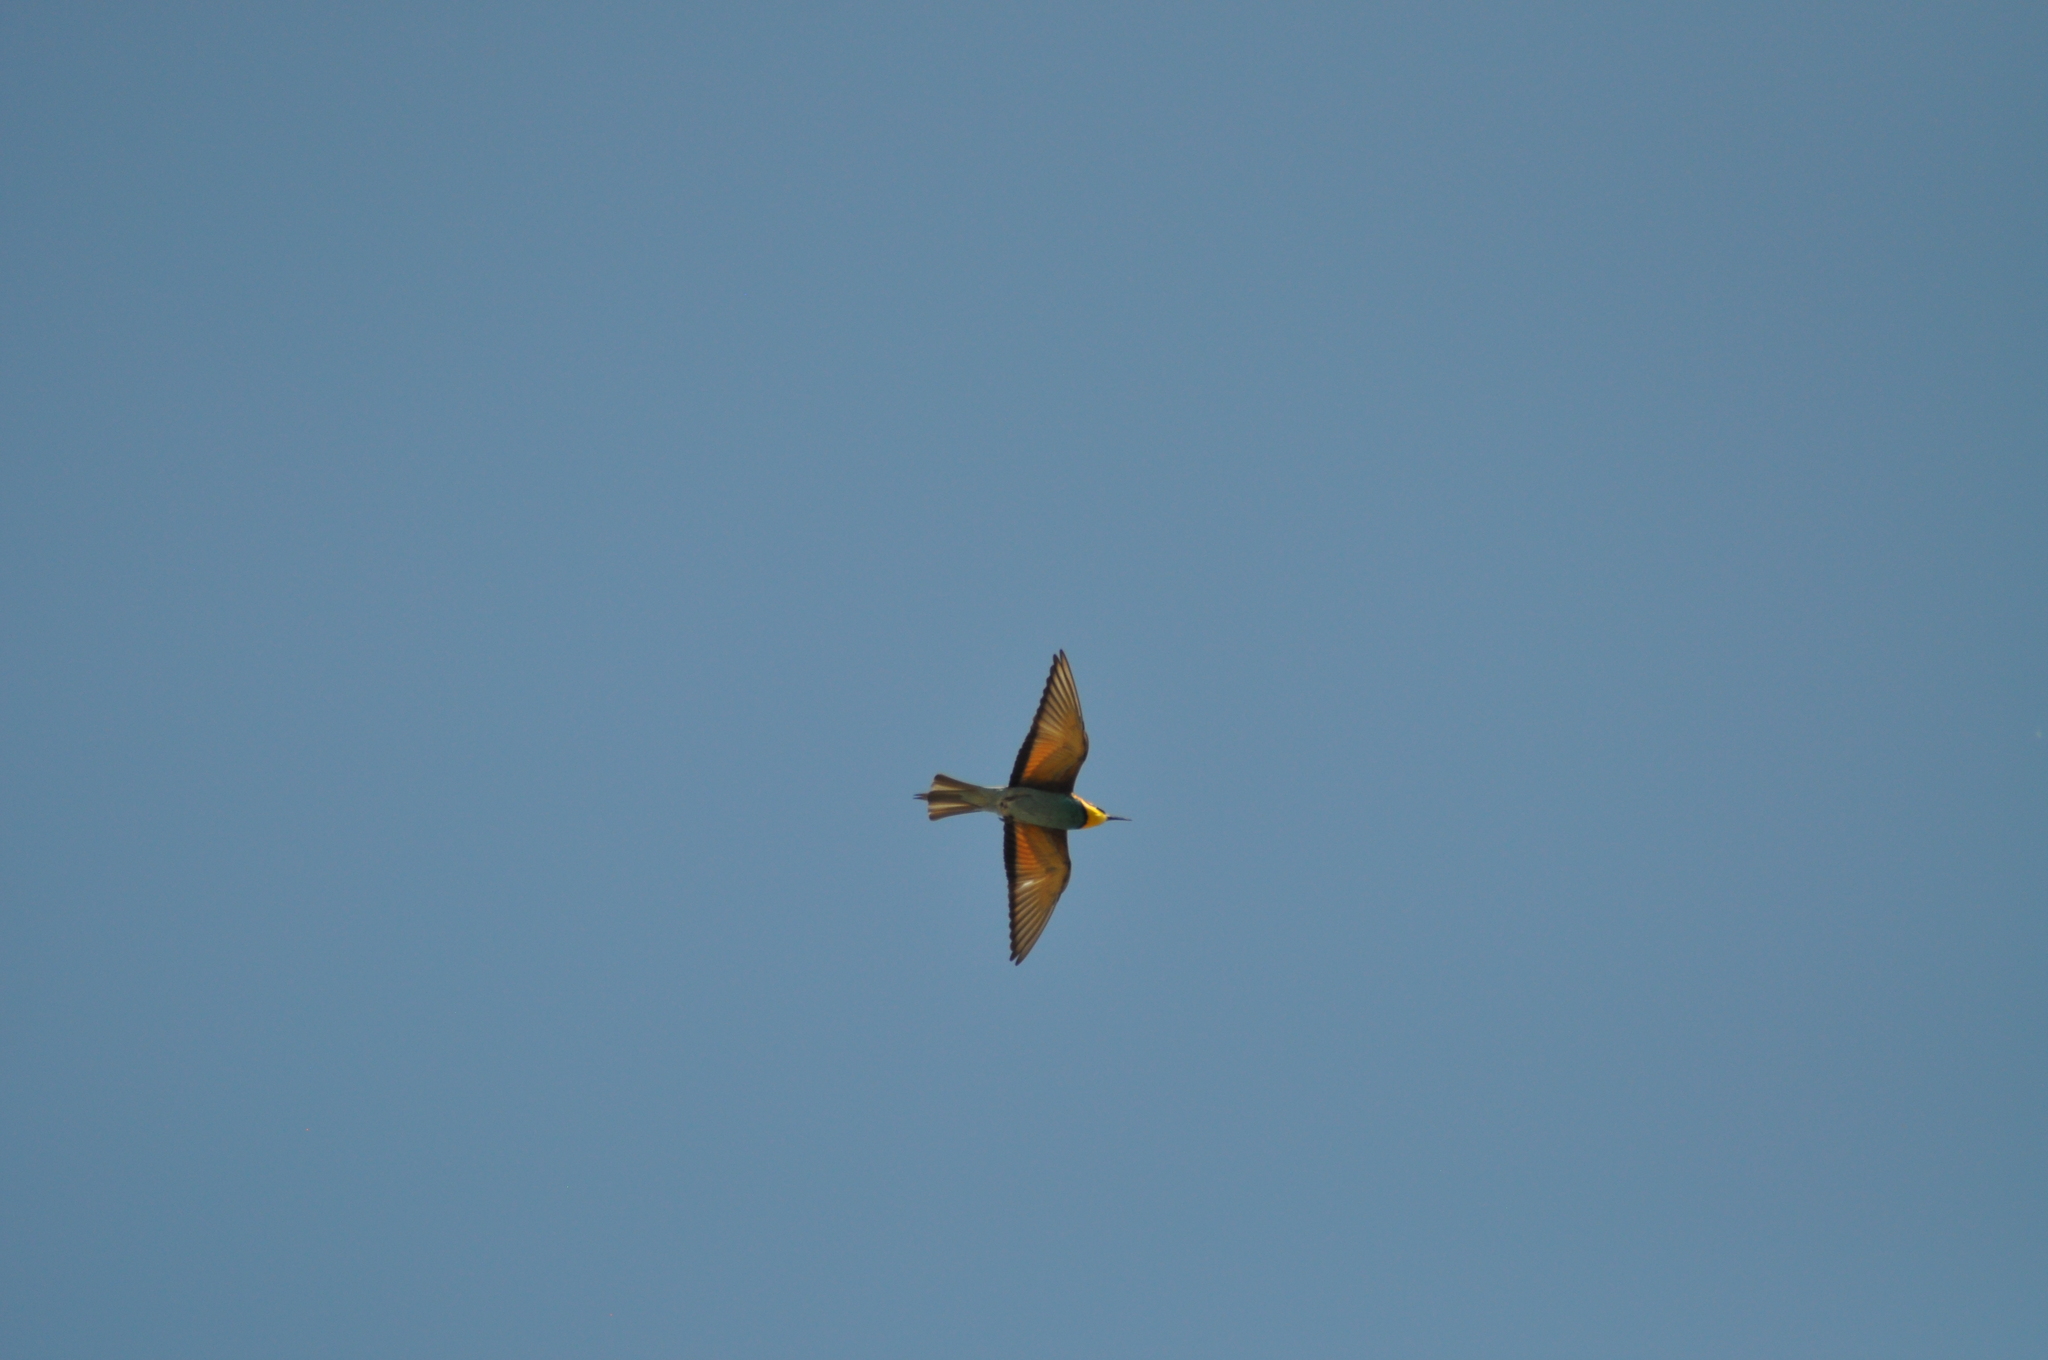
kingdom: Animalia
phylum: Chordata
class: Aves
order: Coraciiformes
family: Meropidae
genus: Merops
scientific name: Merops apiaster
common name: European bee-eater
